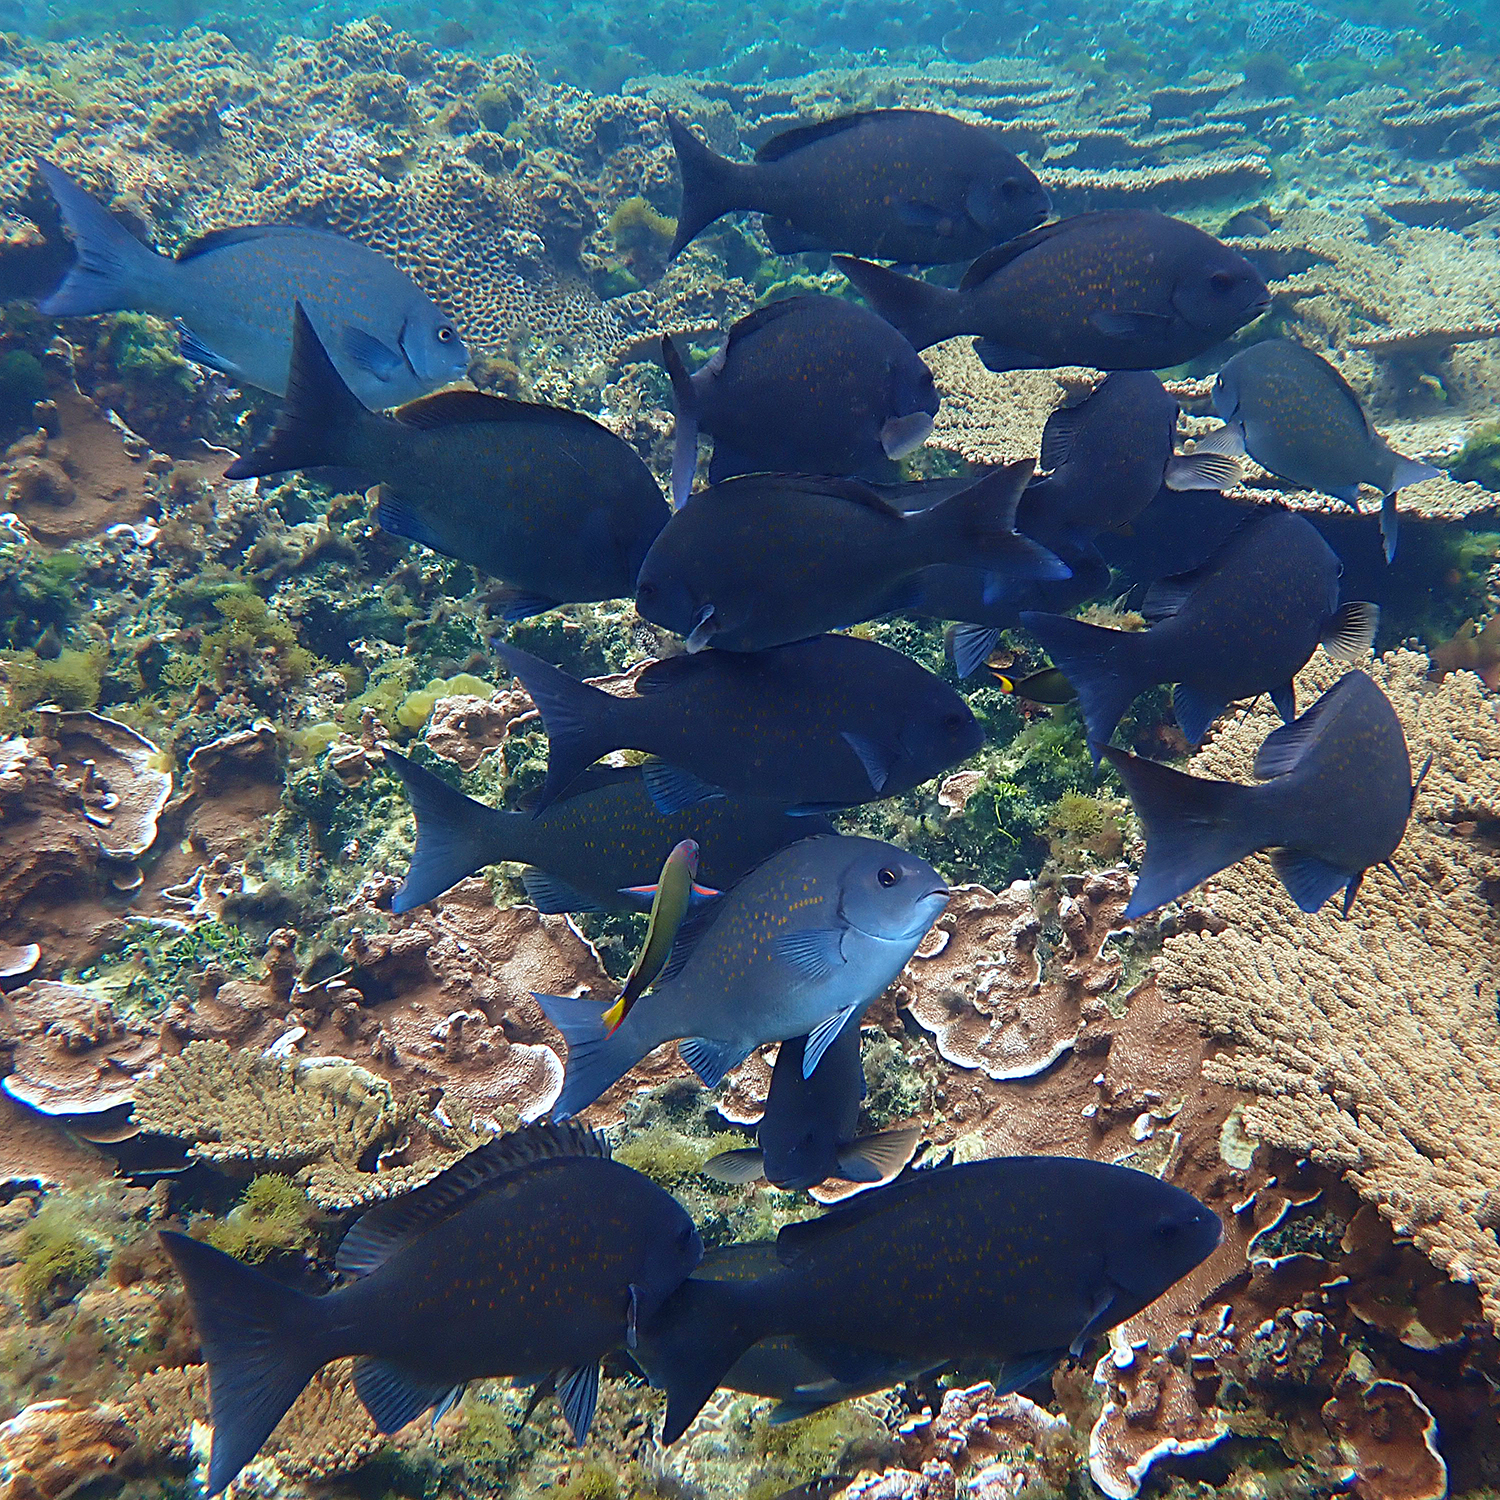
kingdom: Animalia
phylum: Chordata
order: Perciformes
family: Kyphosidae
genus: Girella
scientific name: Girella cyanea
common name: Bluefish
